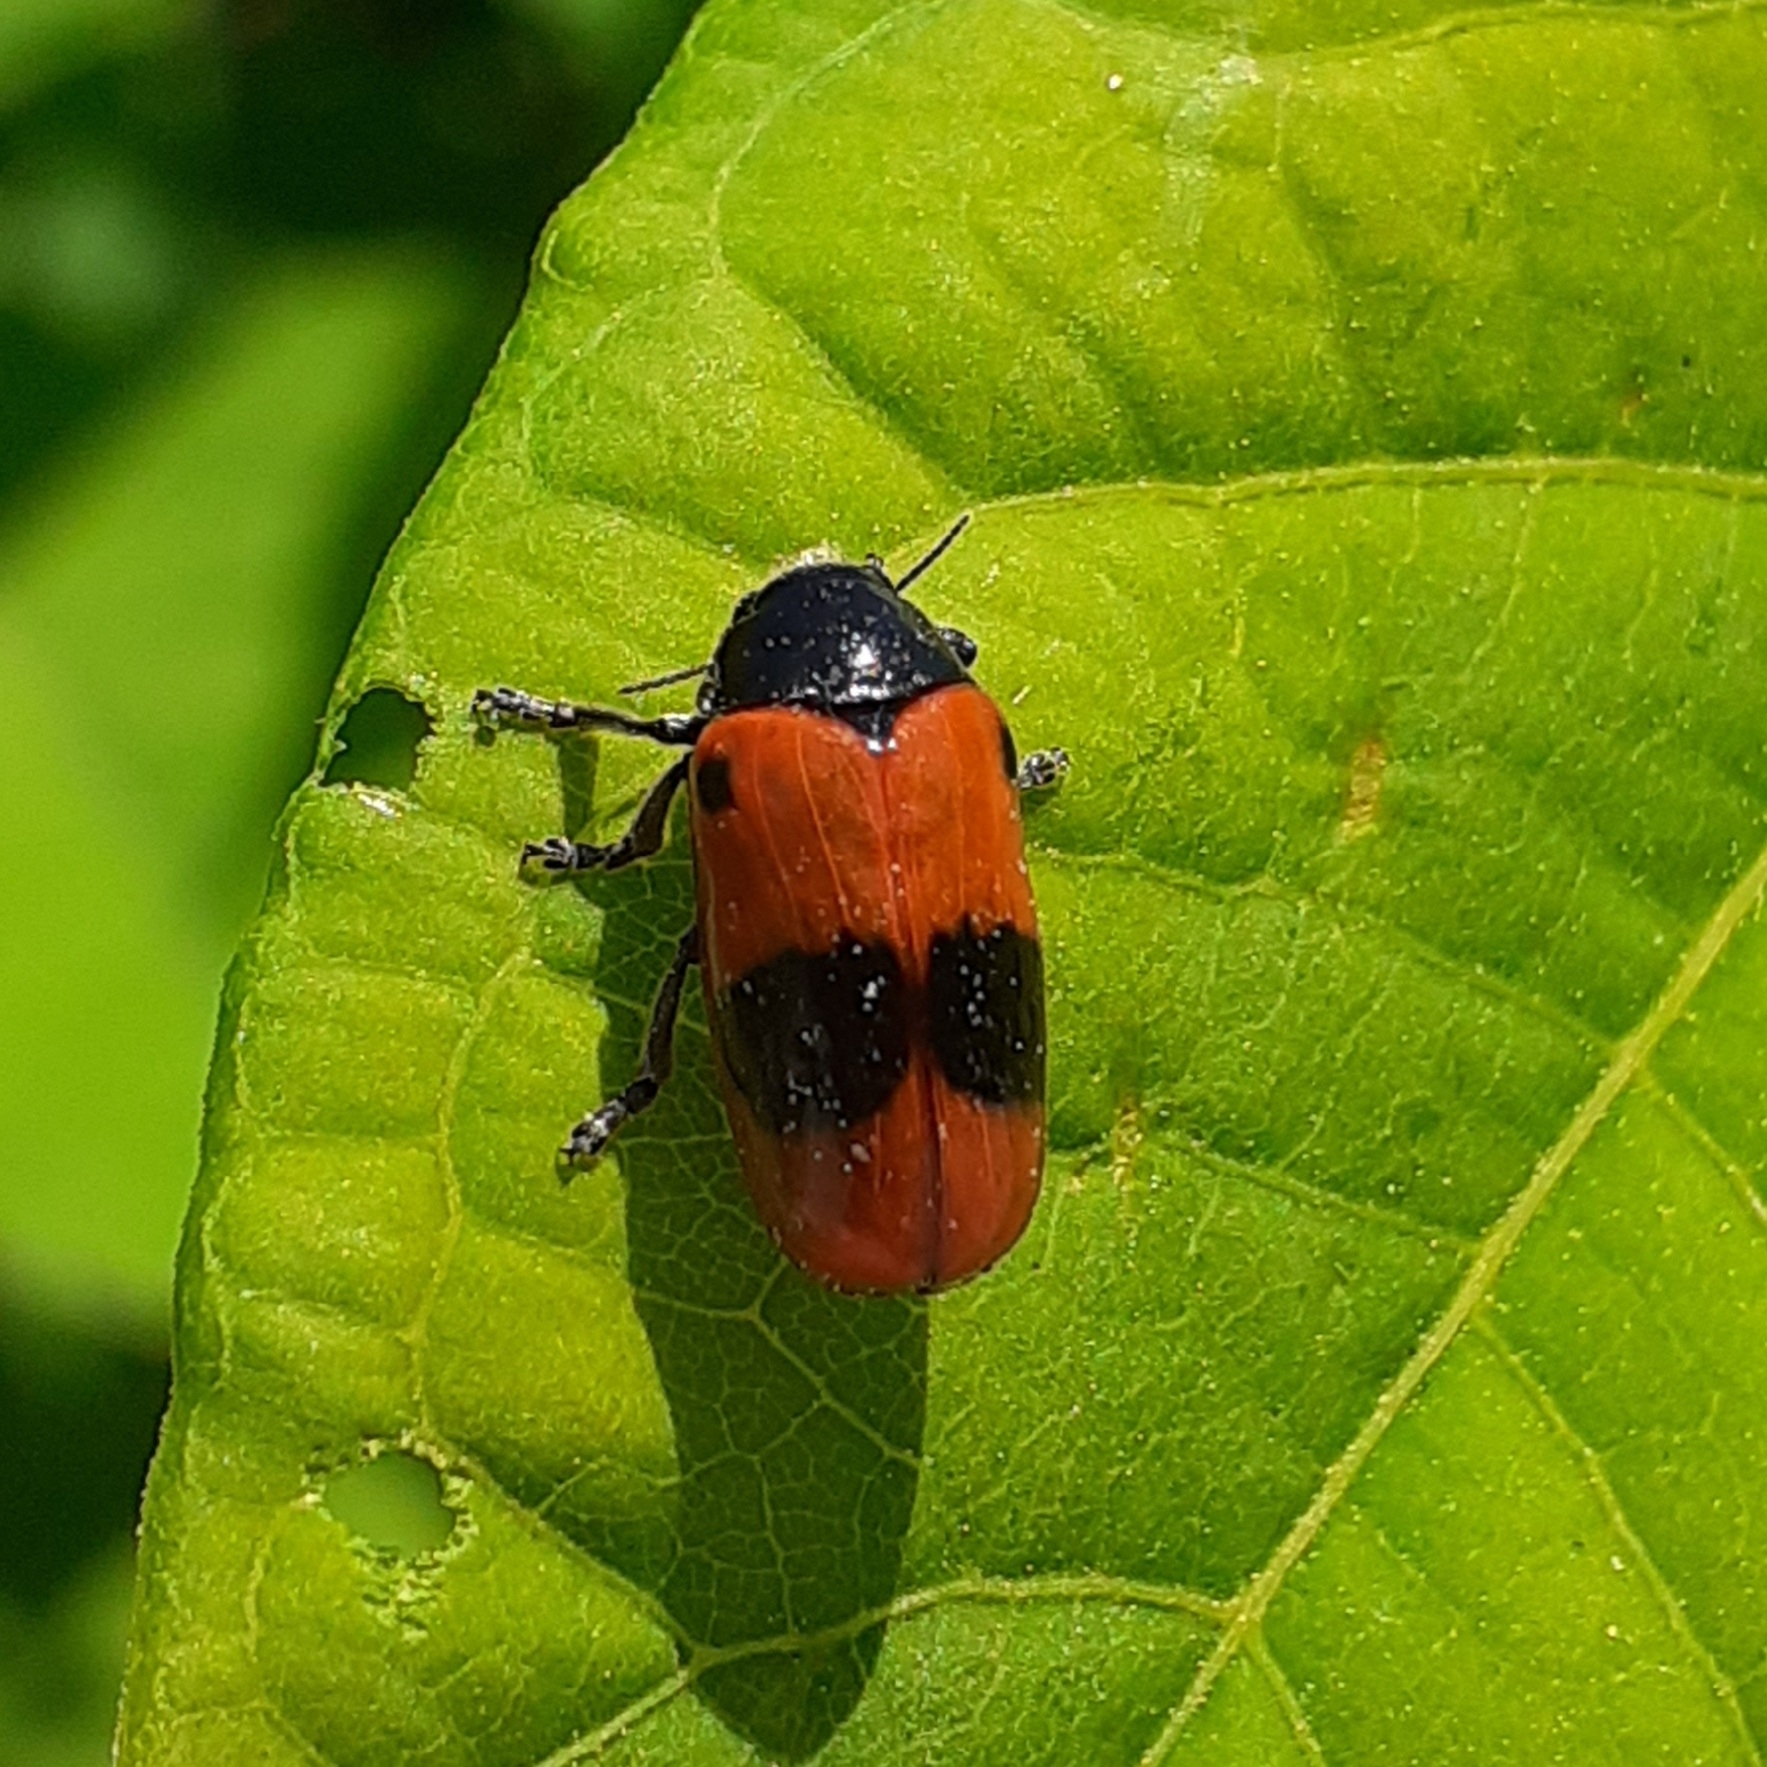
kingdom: Animalia
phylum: Arthropoda
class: Insecta
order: Coleoptera
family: Chrysomelidae
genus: Clytra
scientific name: Clytra laeviuscula
